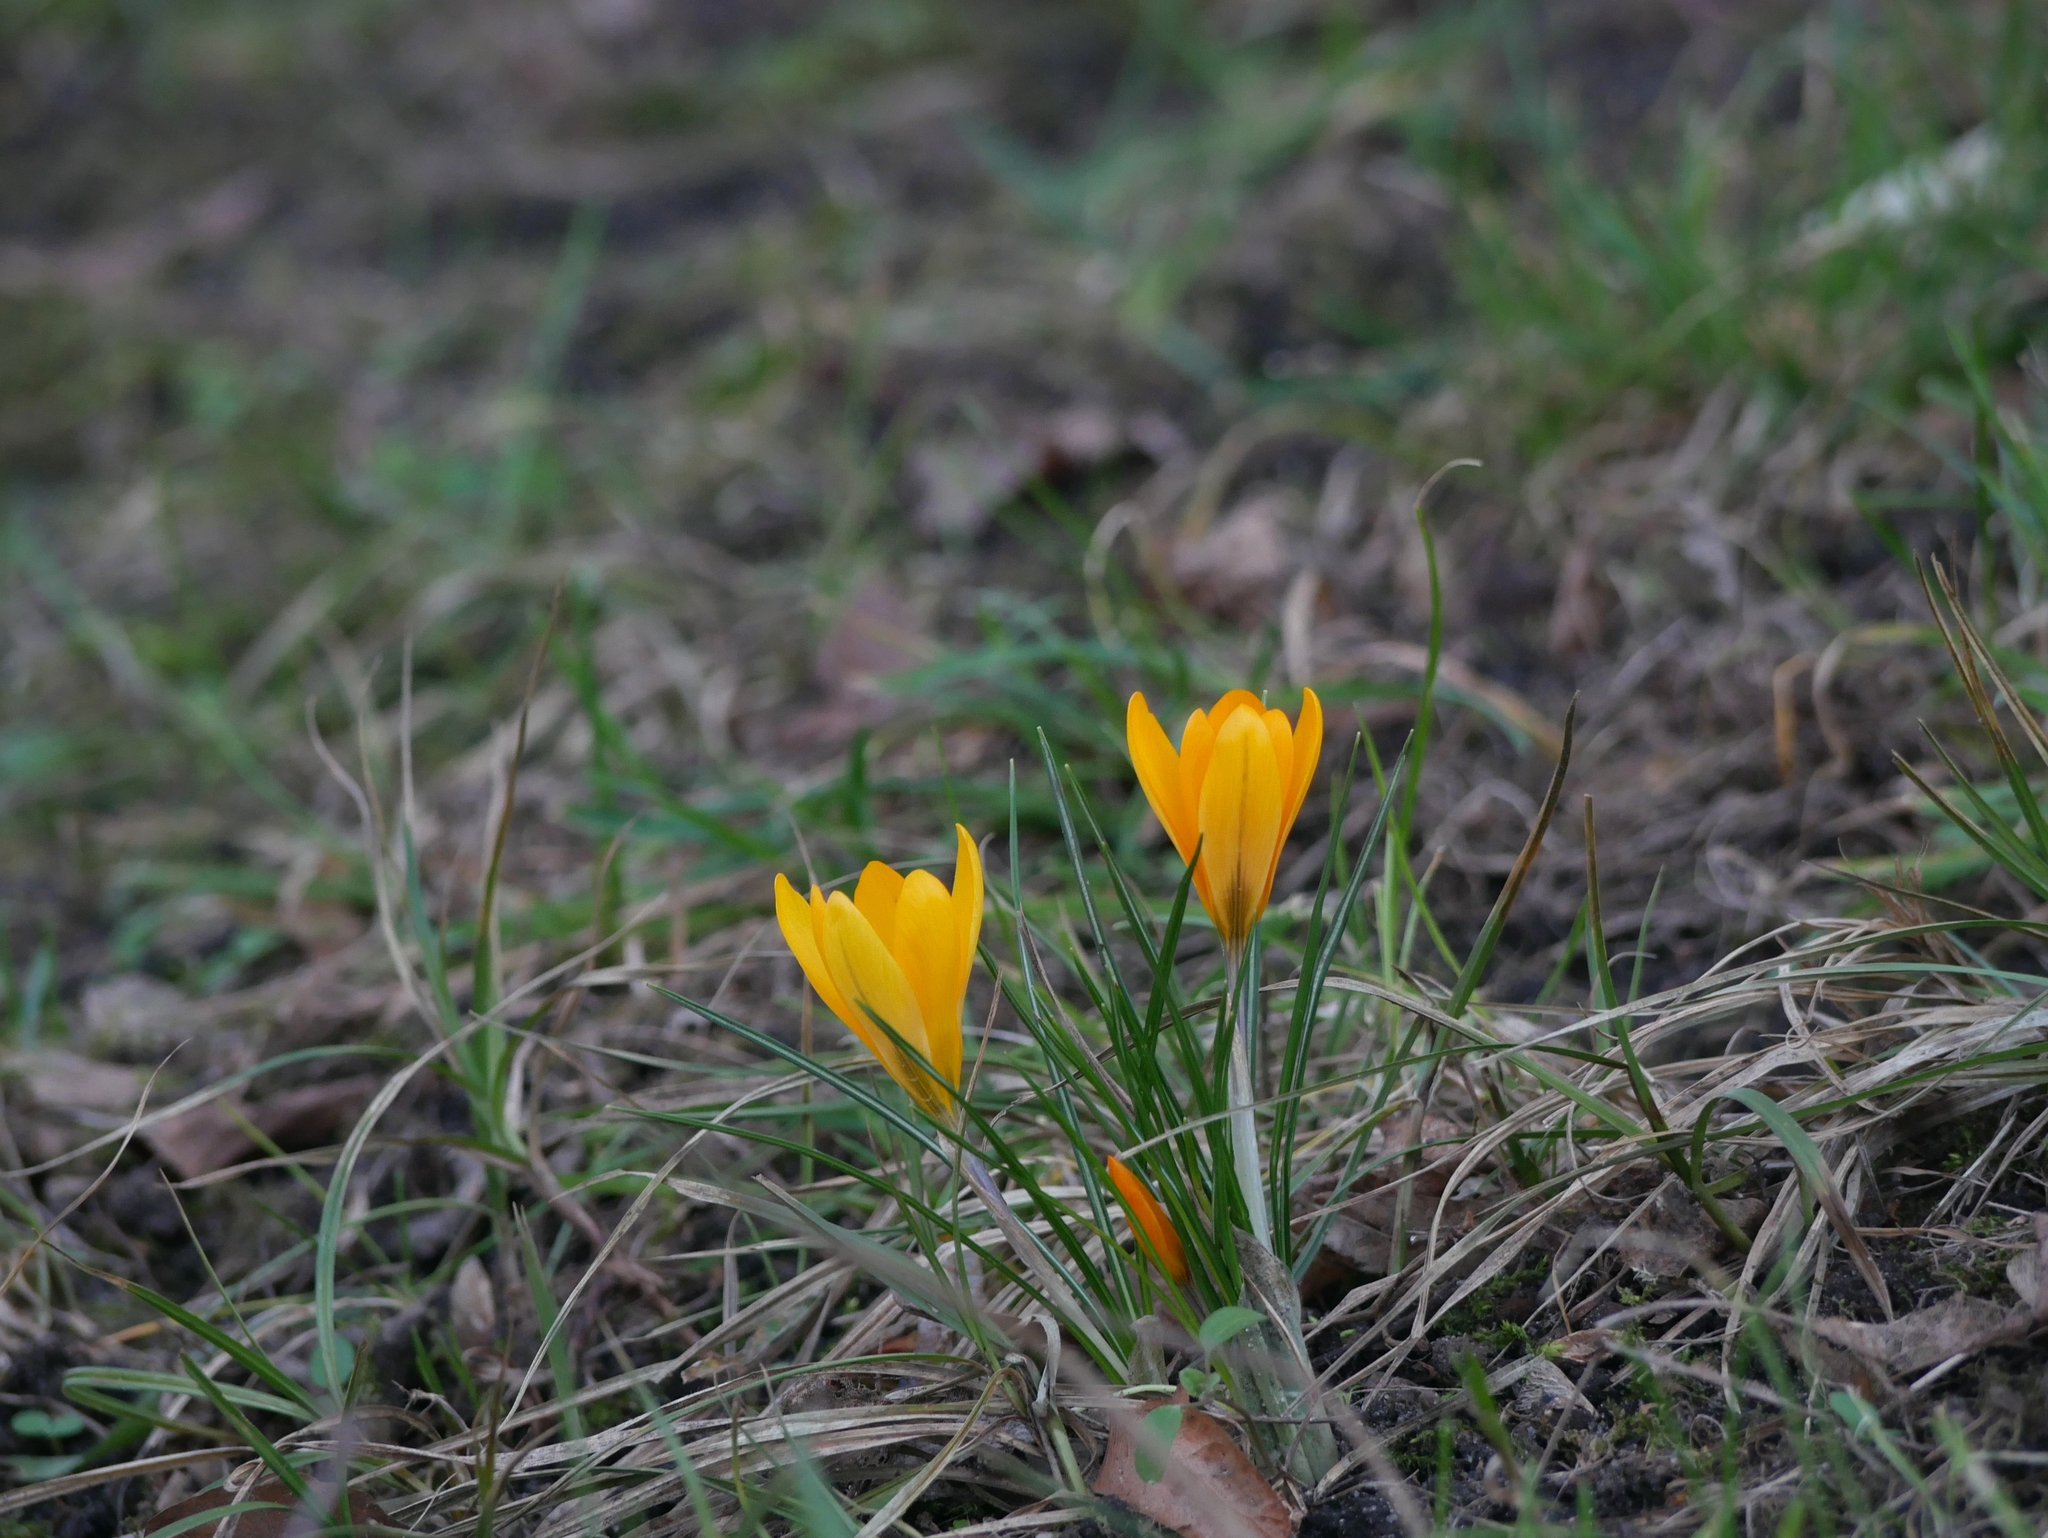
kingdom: Plantae
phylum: Tracheophyta
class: Liliopsida
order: Asparagales
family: Iridaceae
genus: Crocus
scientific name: Crocus luteus
